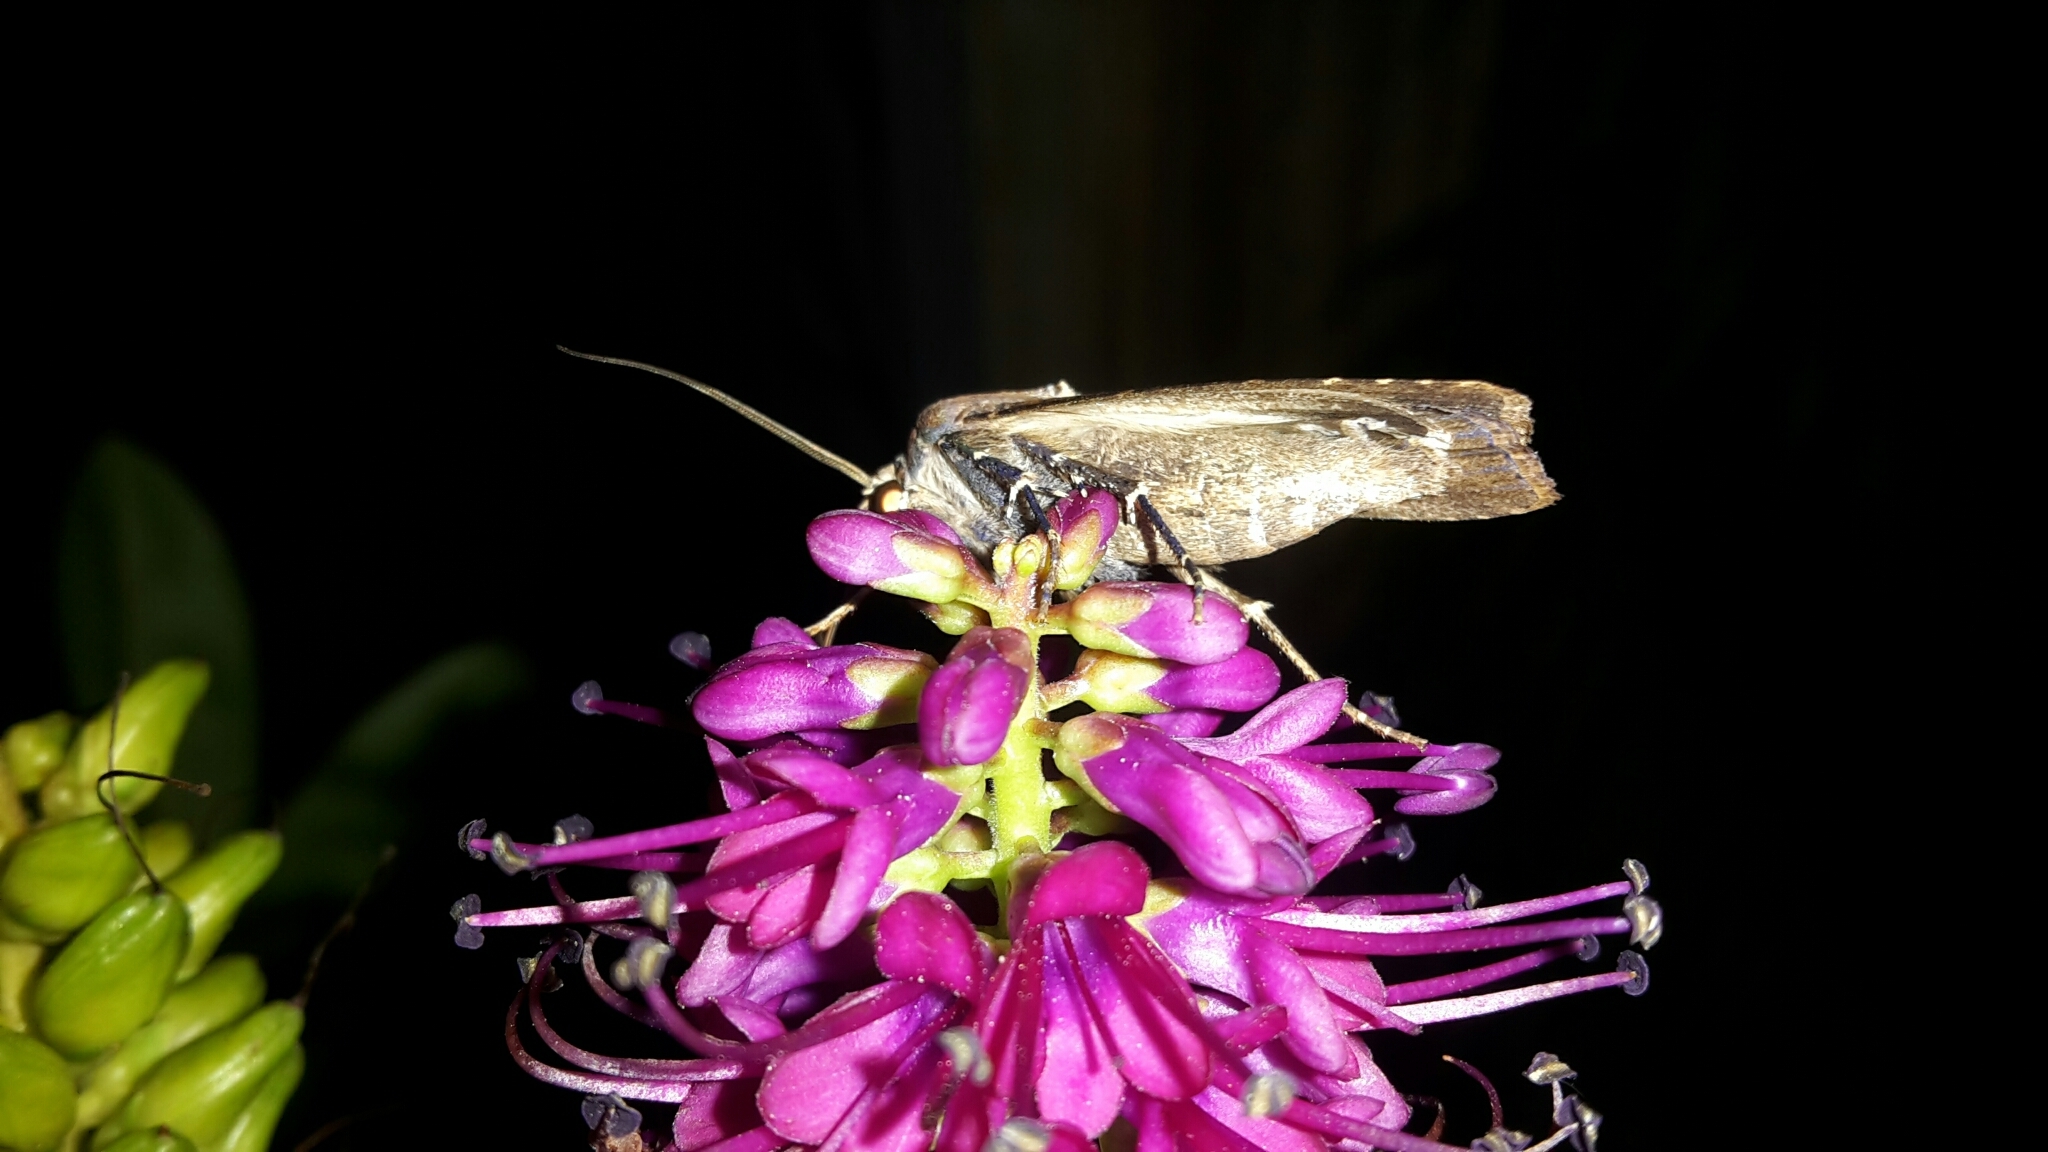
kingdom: Animalia
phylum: Arthropoda
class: Insecta
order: Lepidoptera
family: Noctuidae
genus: Agrotis
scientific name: Agrotis ipsilon
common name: Dark sword-grass
